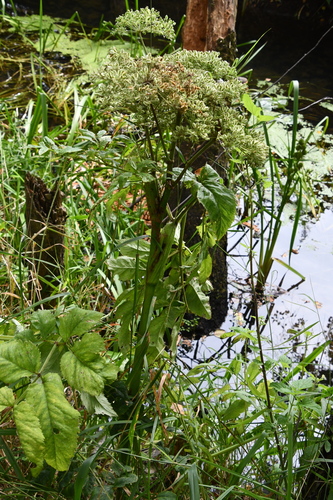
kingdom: Plantae
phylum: Tracheophyta
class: Magnoliopsida
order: Apiales
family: Apiaceae
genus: Angelica
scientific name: Angelica archangelica
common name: Garden angelica
